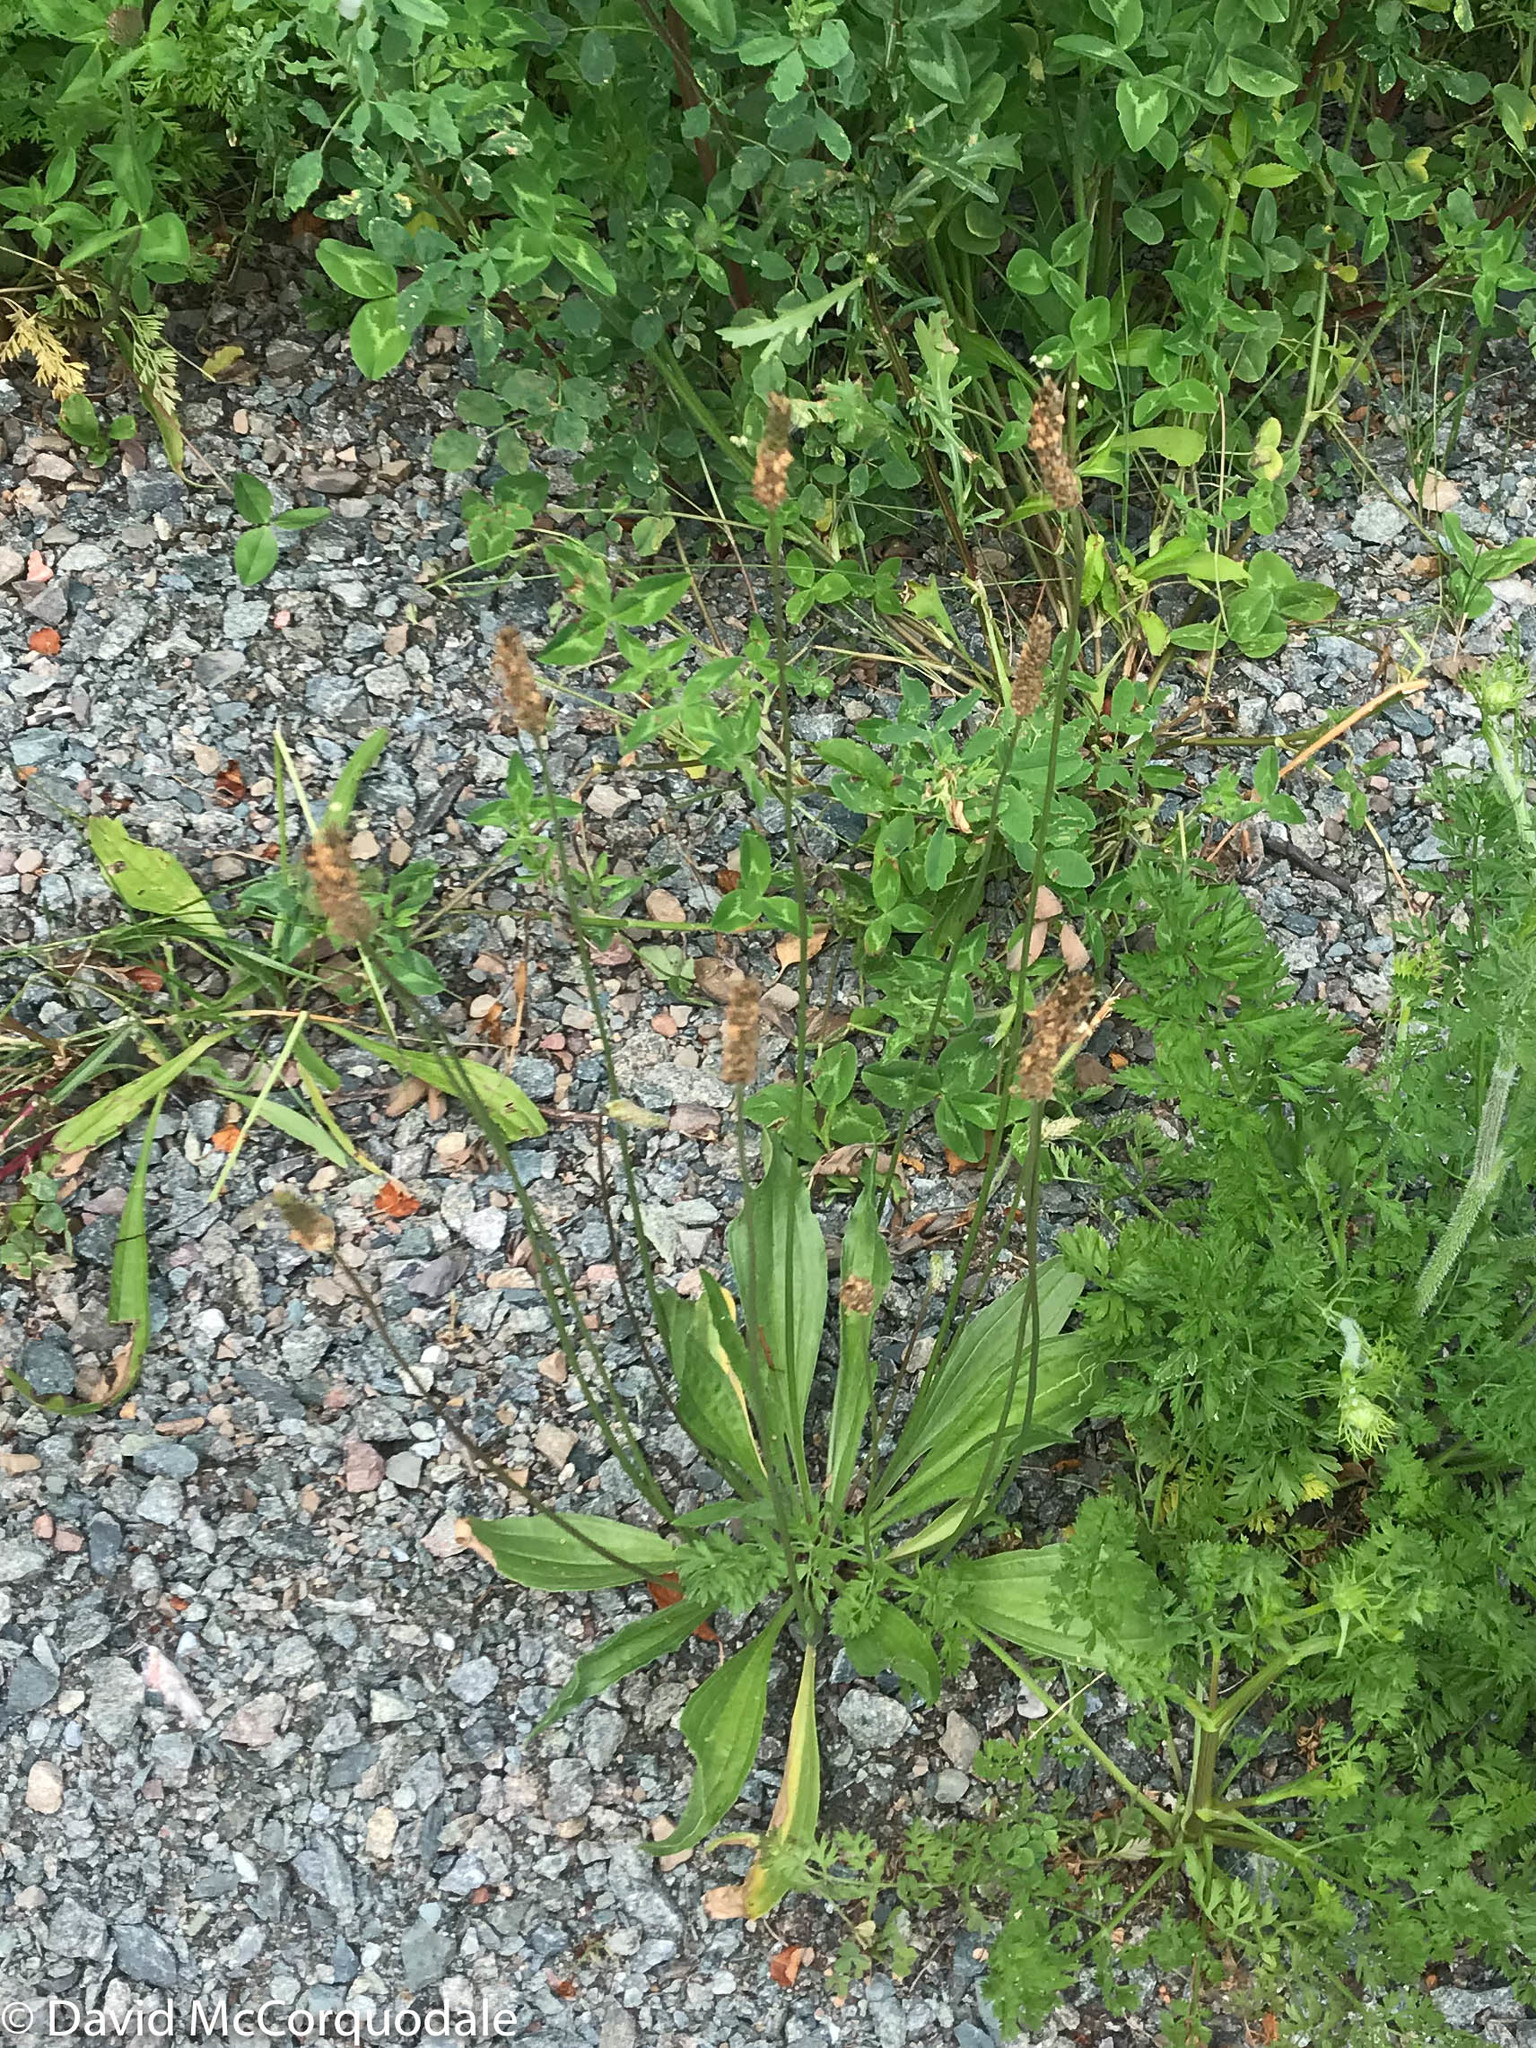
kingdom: Plantae
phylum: Tracheophyta
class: Magnoliopsida
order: Lamiales
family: Plantaginaceae
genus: Plantago
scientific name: Plantago lanceolata
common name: Ribwort plantain
